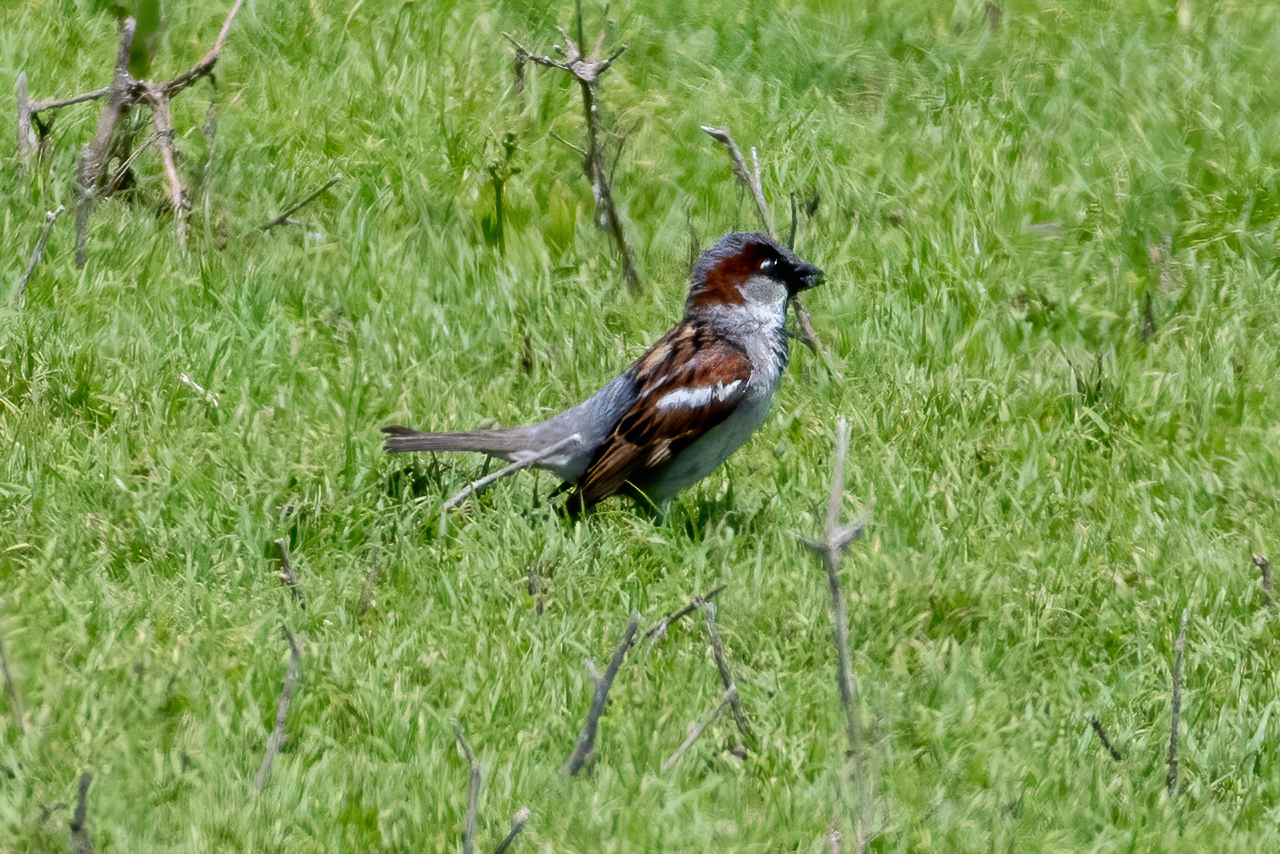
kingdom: Animalia
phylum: Chordata
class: Aves
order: Passeriformes
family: Passeridae
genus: Passer
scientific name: Passer domesticus
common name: House sparrow
